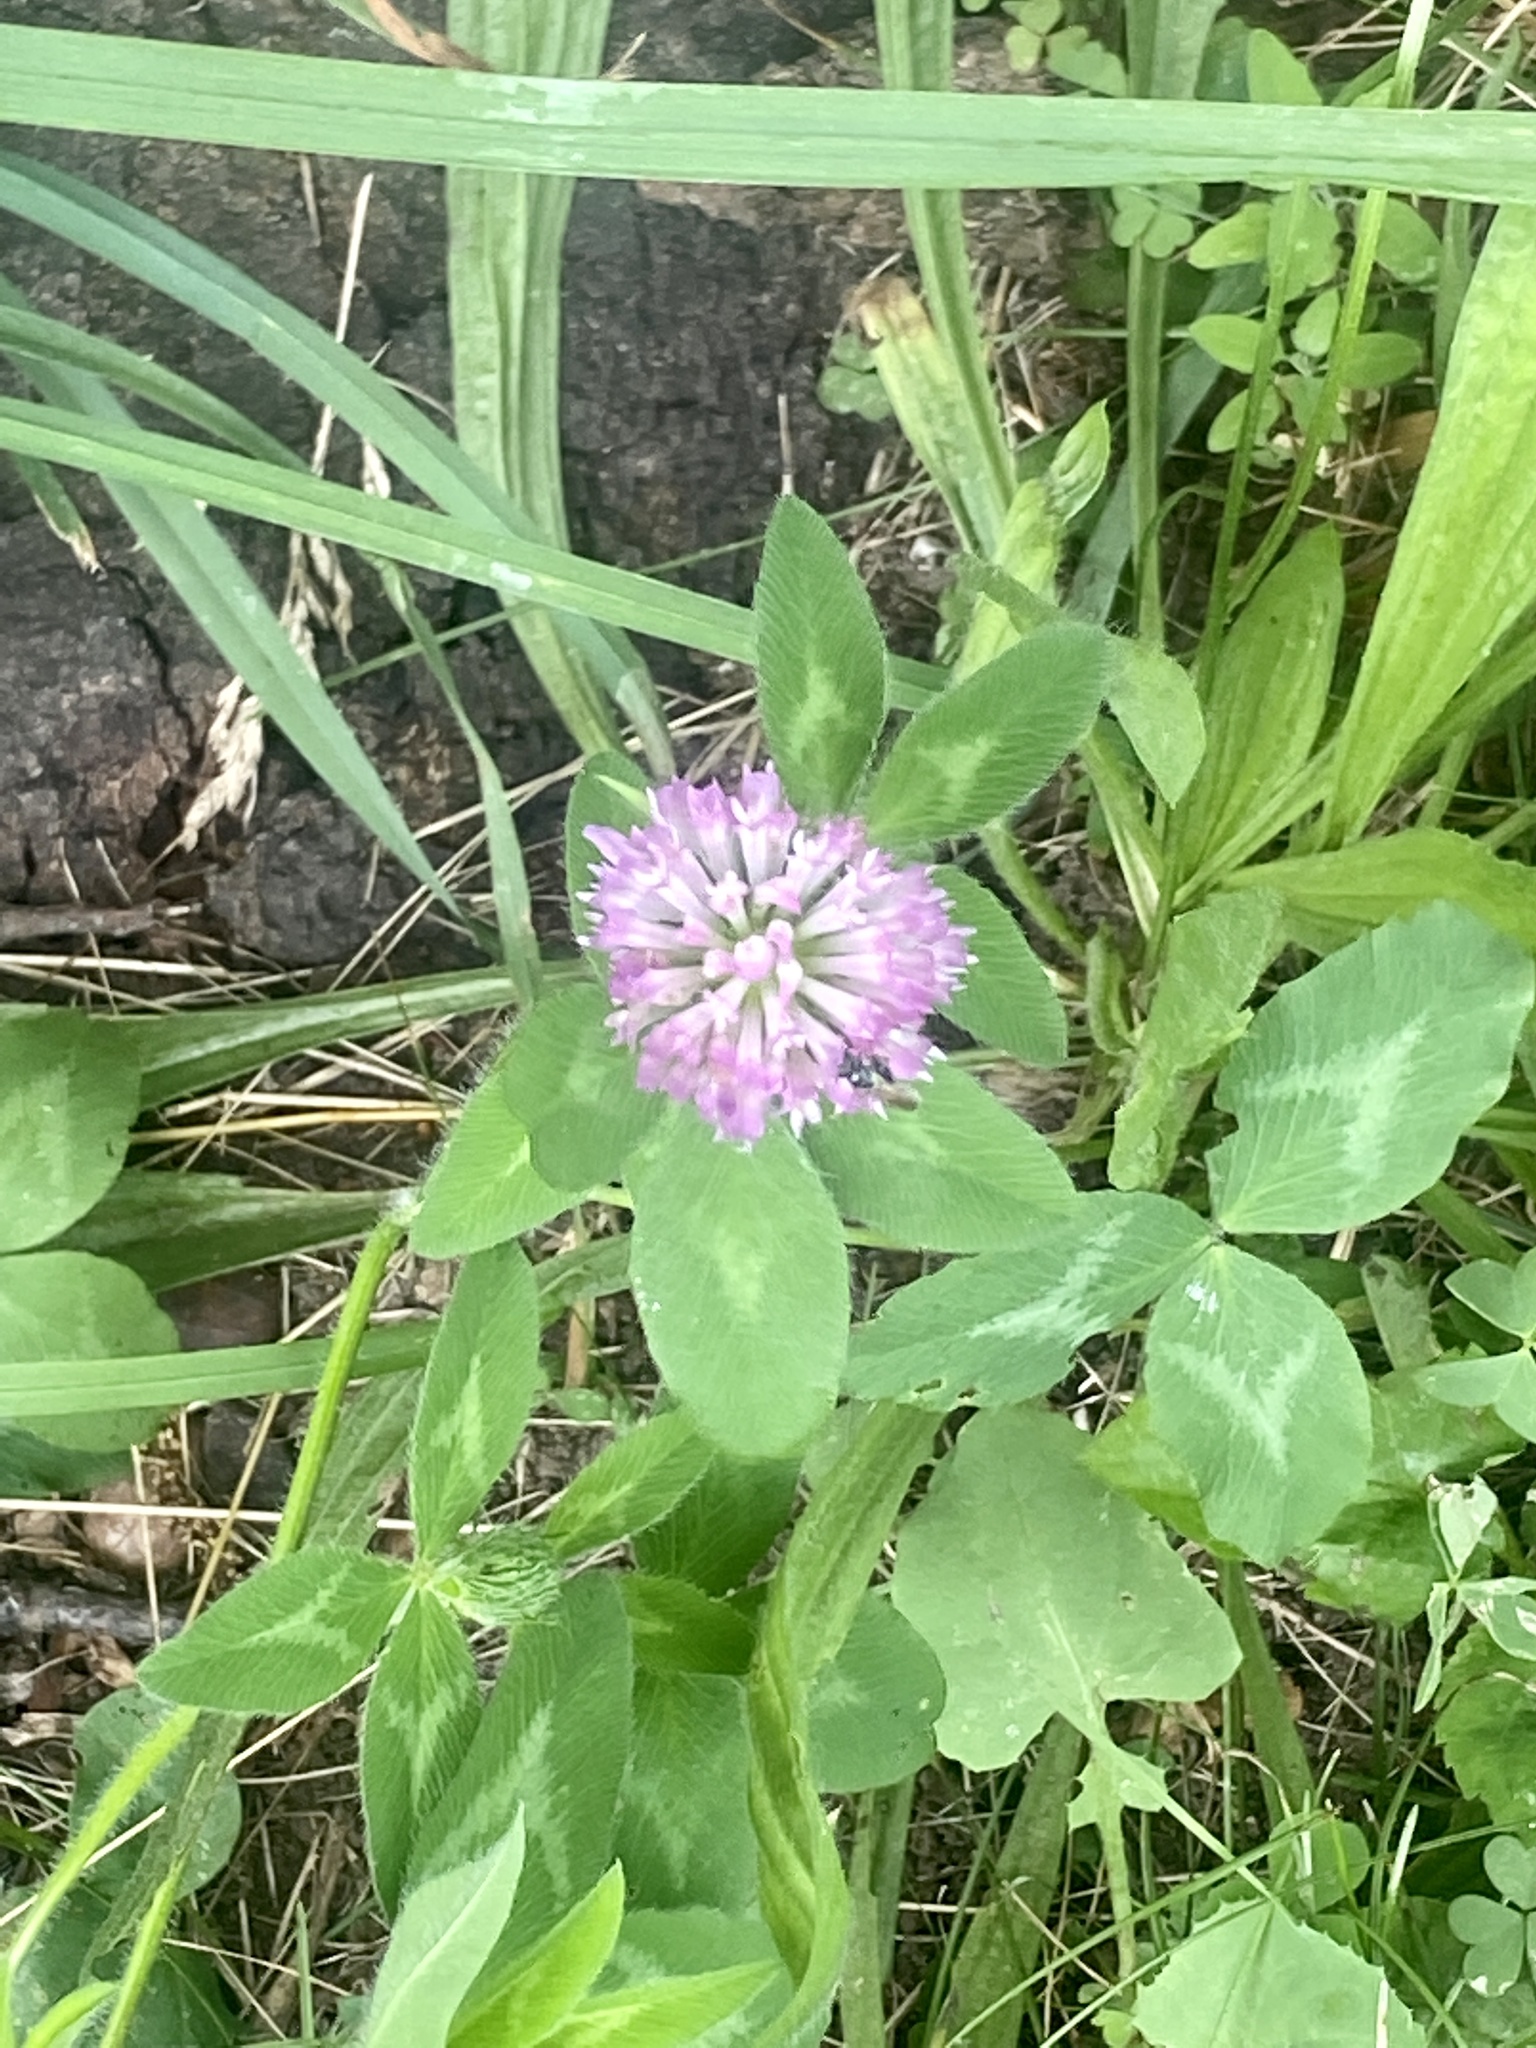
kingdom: Plantae
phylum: Tracheophyta
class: Magnoliopsida
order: Fabales
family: Fabaceae
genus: Trifolium
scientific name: Trifolium pratense
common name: Red clover
